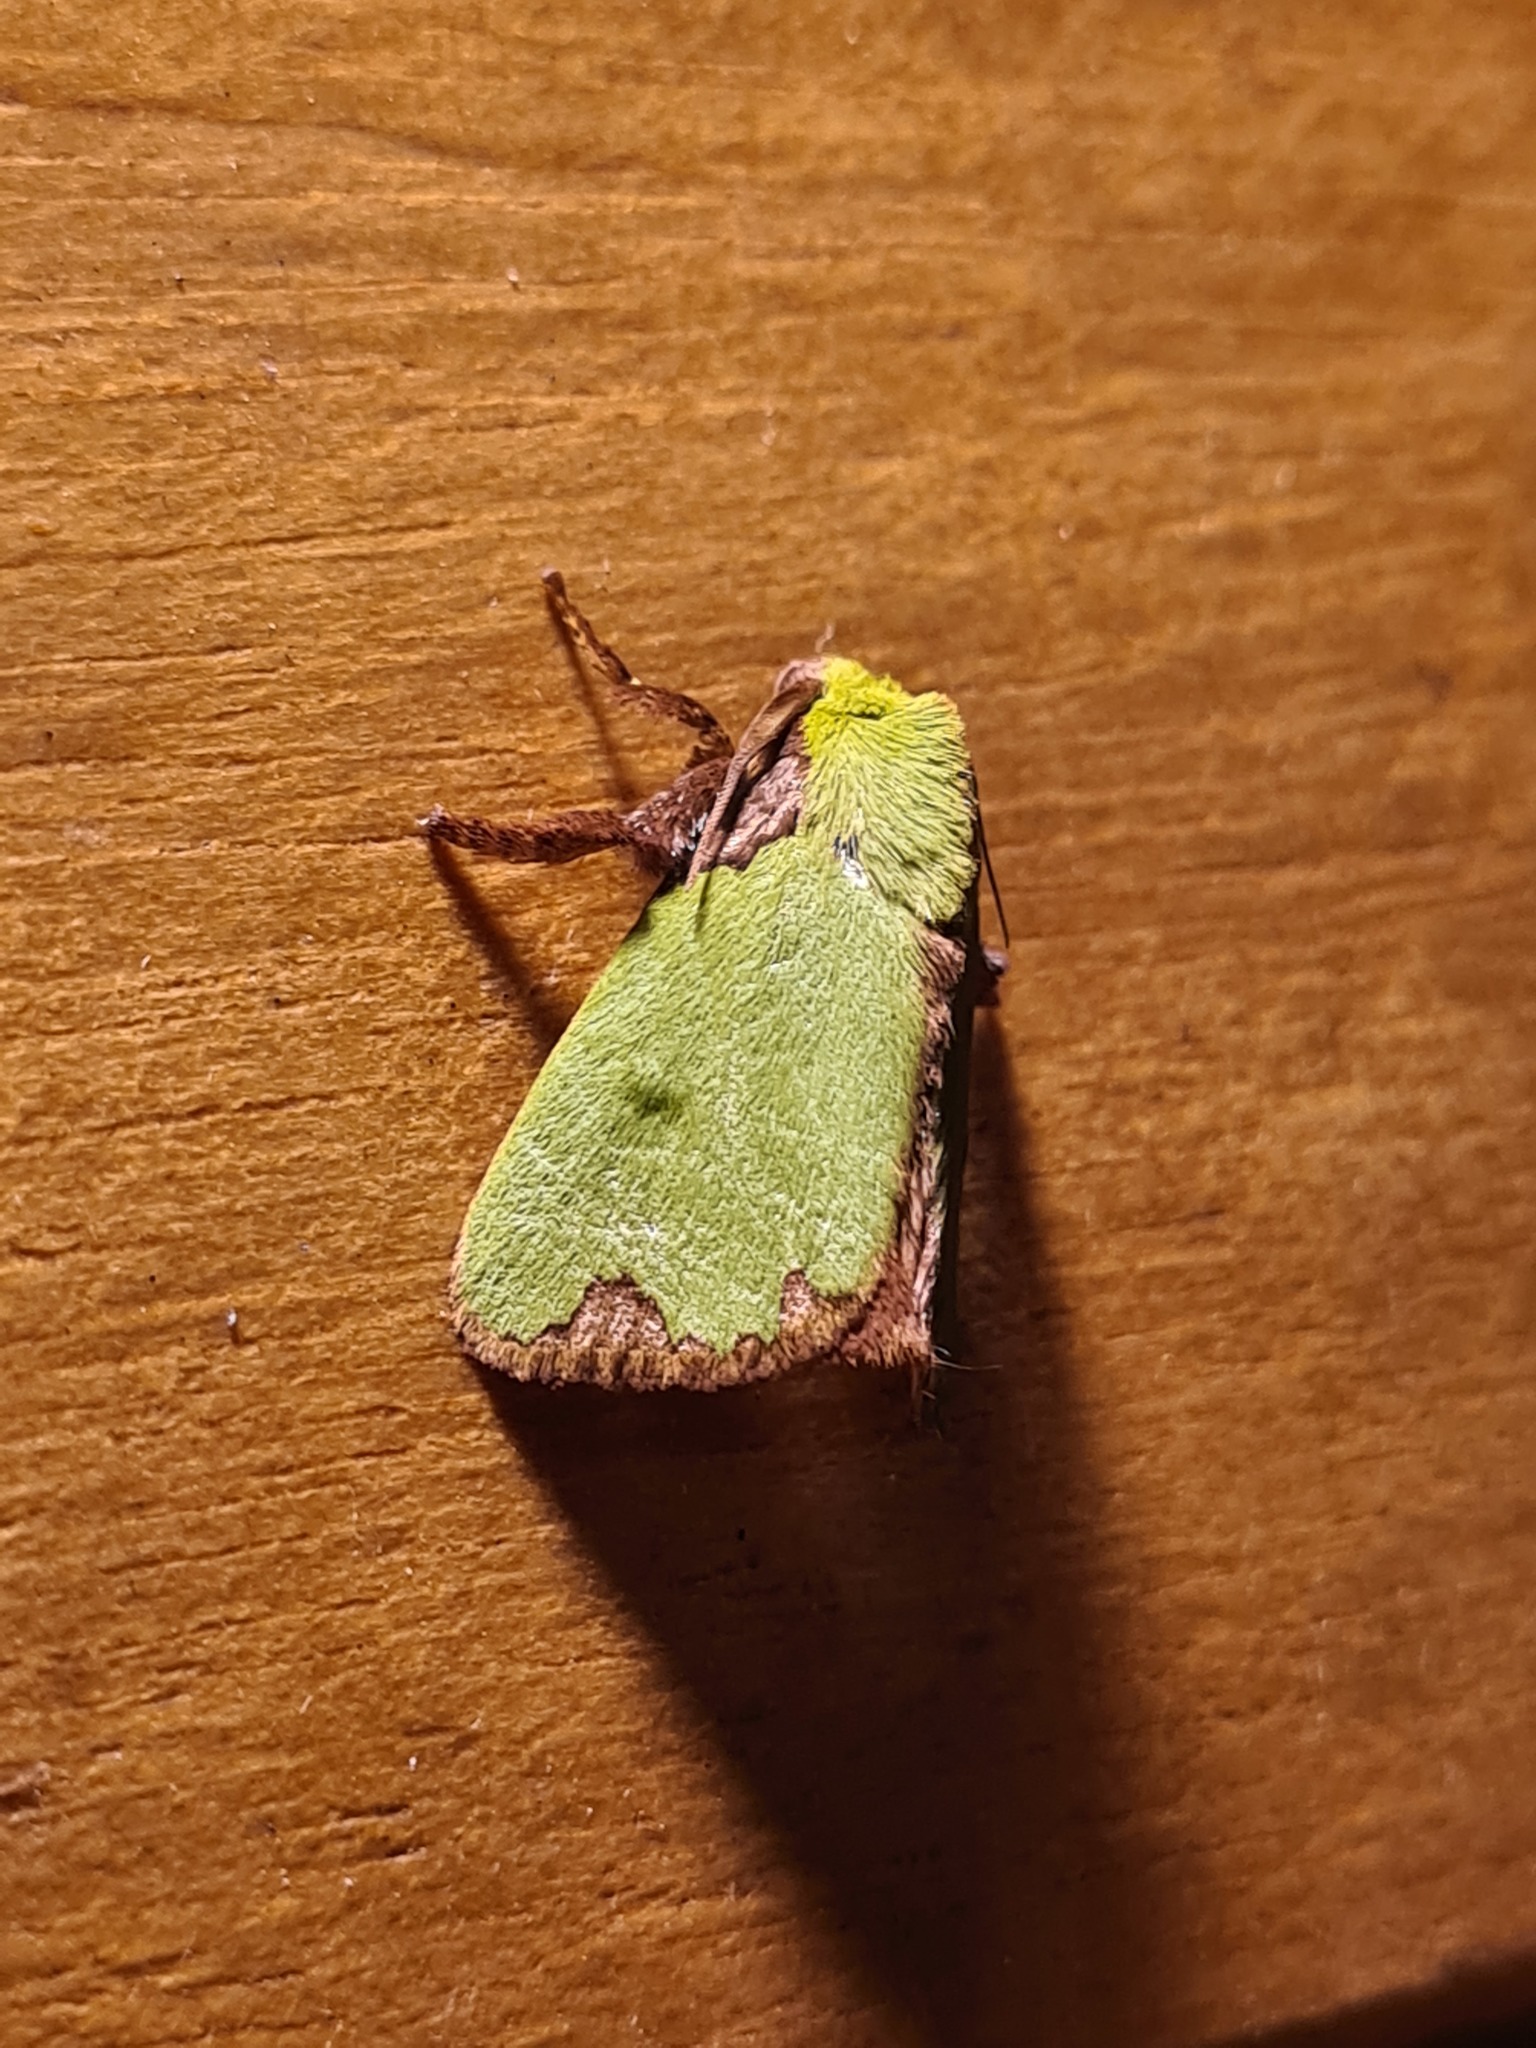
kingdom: Animalia
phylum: Arthropoda
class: Insecta
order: Lepidoptera
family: Limacodidae
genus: Parasa
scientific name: Parasa imitata
